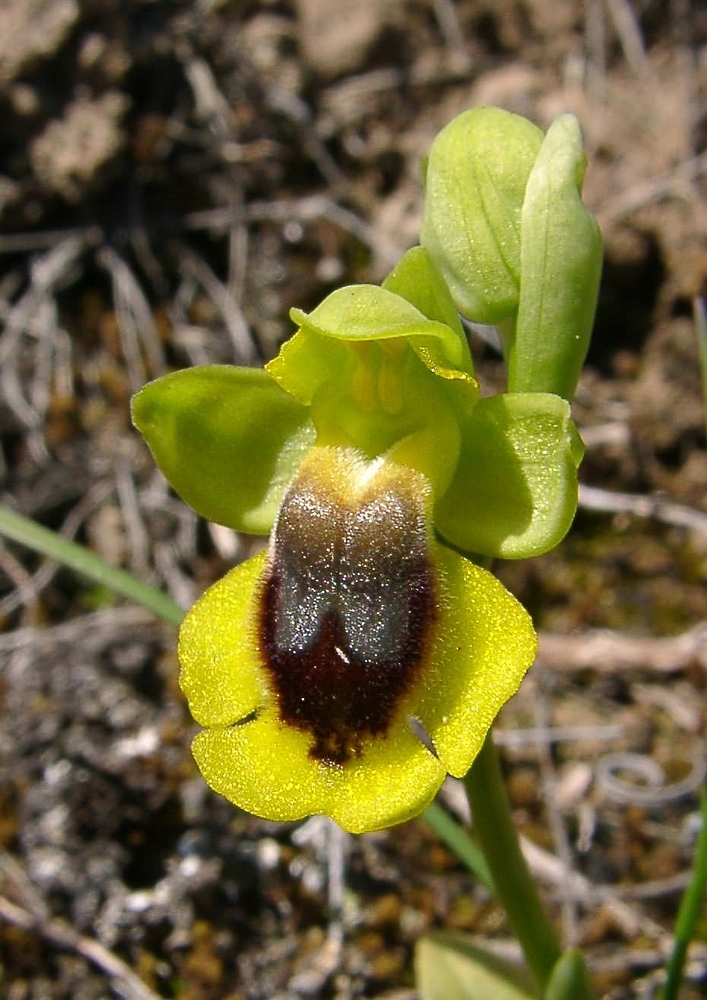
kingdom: Plantae
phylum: Tracheophyta
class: Liliopsida
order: Asparagales
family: Orchidaceae
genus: Ophrys
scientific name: Ophrys lutea
